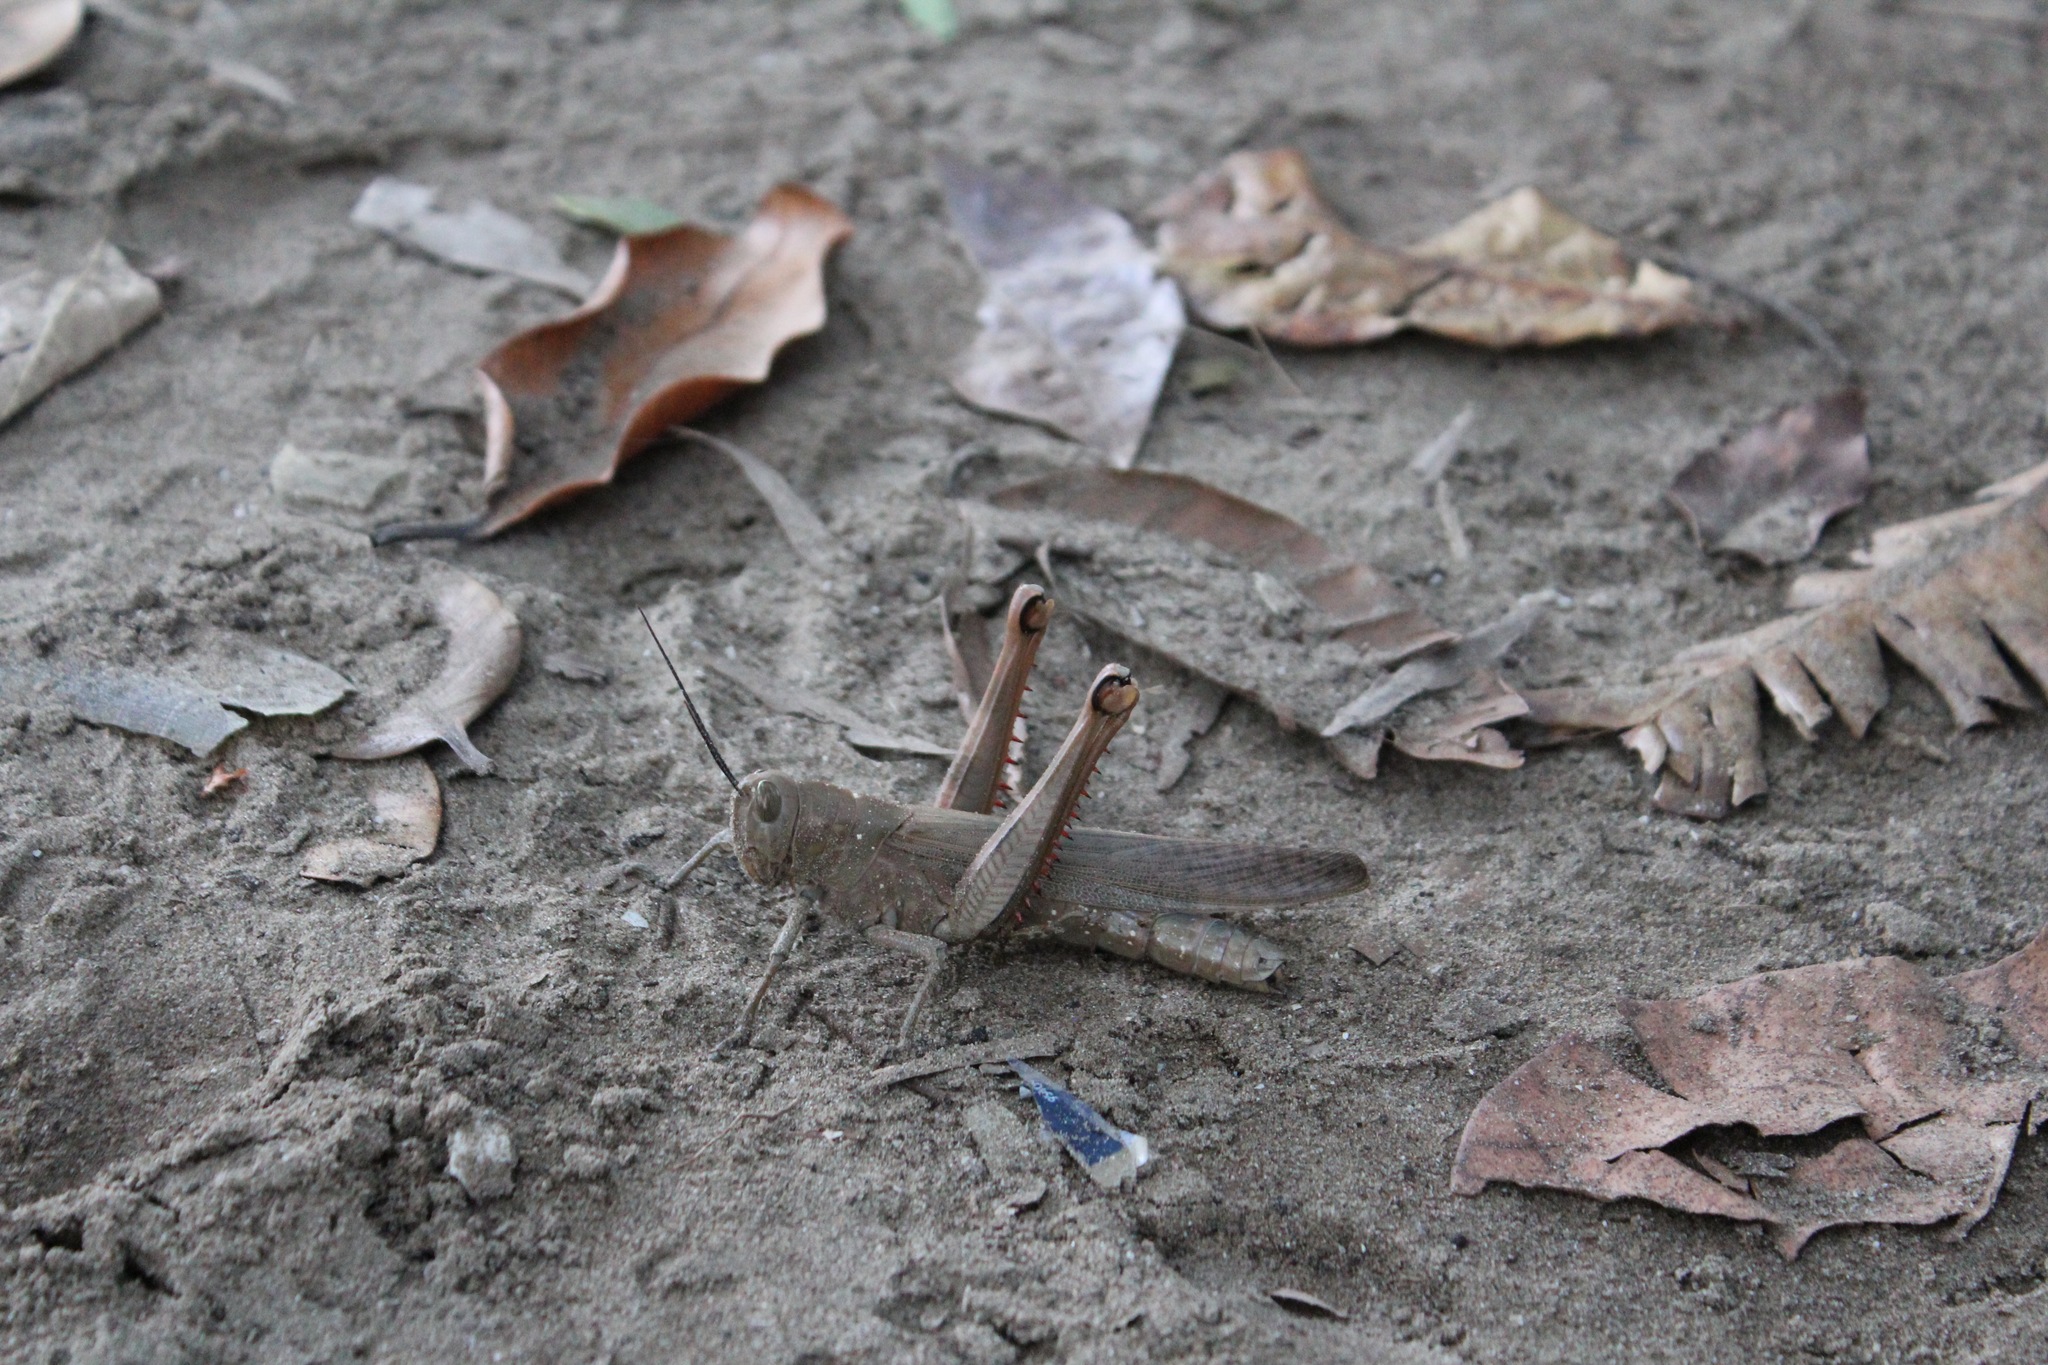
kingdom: Animalia
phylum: Arthropoda
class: Insecta
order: Orthoptera
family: Acrididae
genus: Valanga
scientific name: Valanga irregularis
